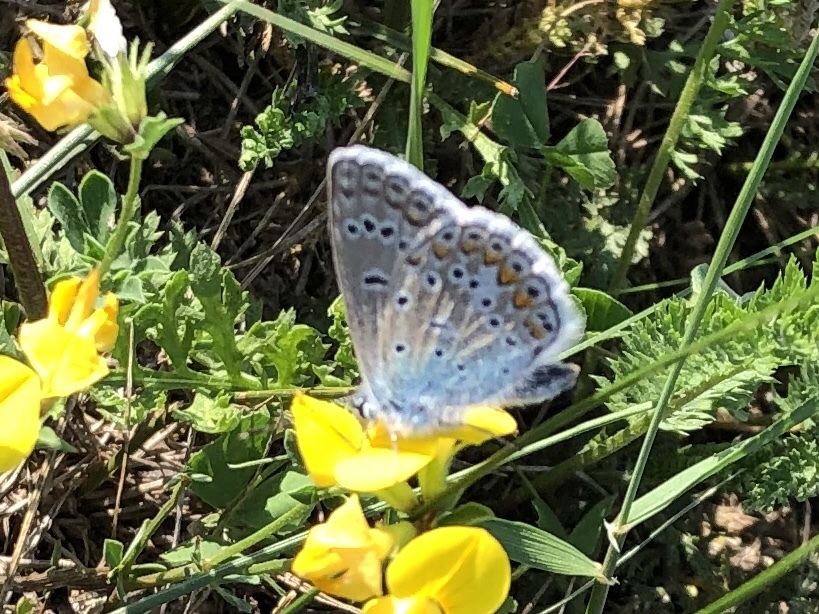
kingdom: Animalia
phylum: Arthropoda
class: Insecta
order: Lepidoptera
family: Lycaenidae
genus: Polyommatus
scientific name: Polyommatus icarus
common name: Common blue
